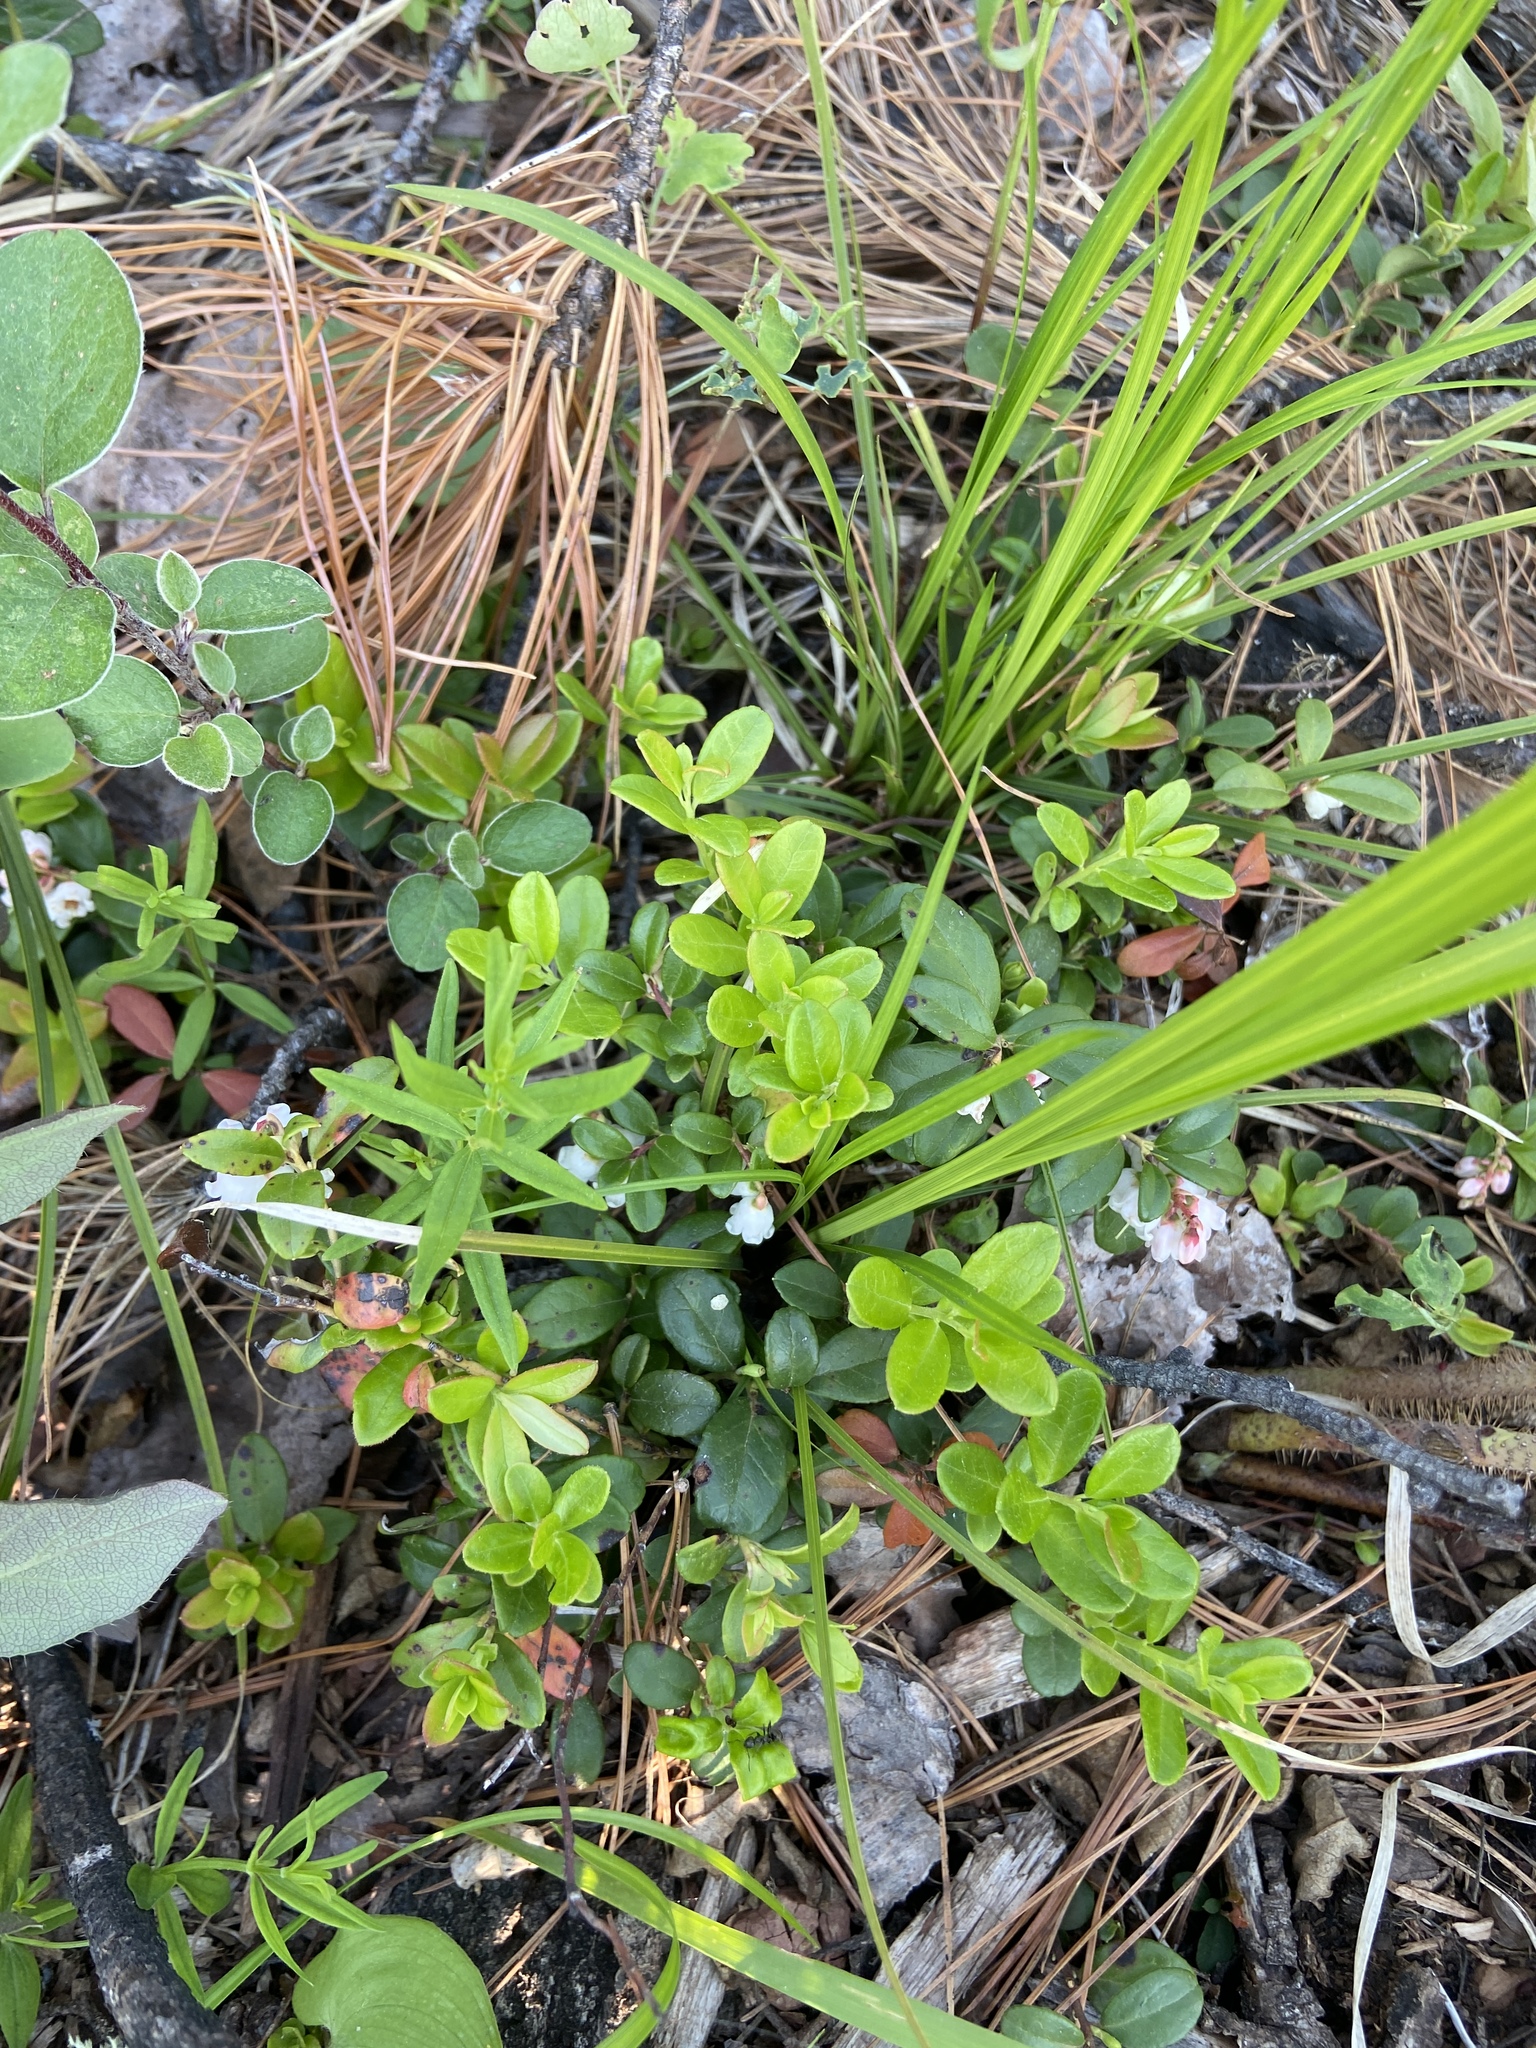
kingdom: Plantae
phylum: Tracheophyta
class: Magnoliopsida
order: Ericales
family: Ericaceae
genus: Vaccinium
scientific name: Vaccinium vitis-idaea
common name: Cowberry
